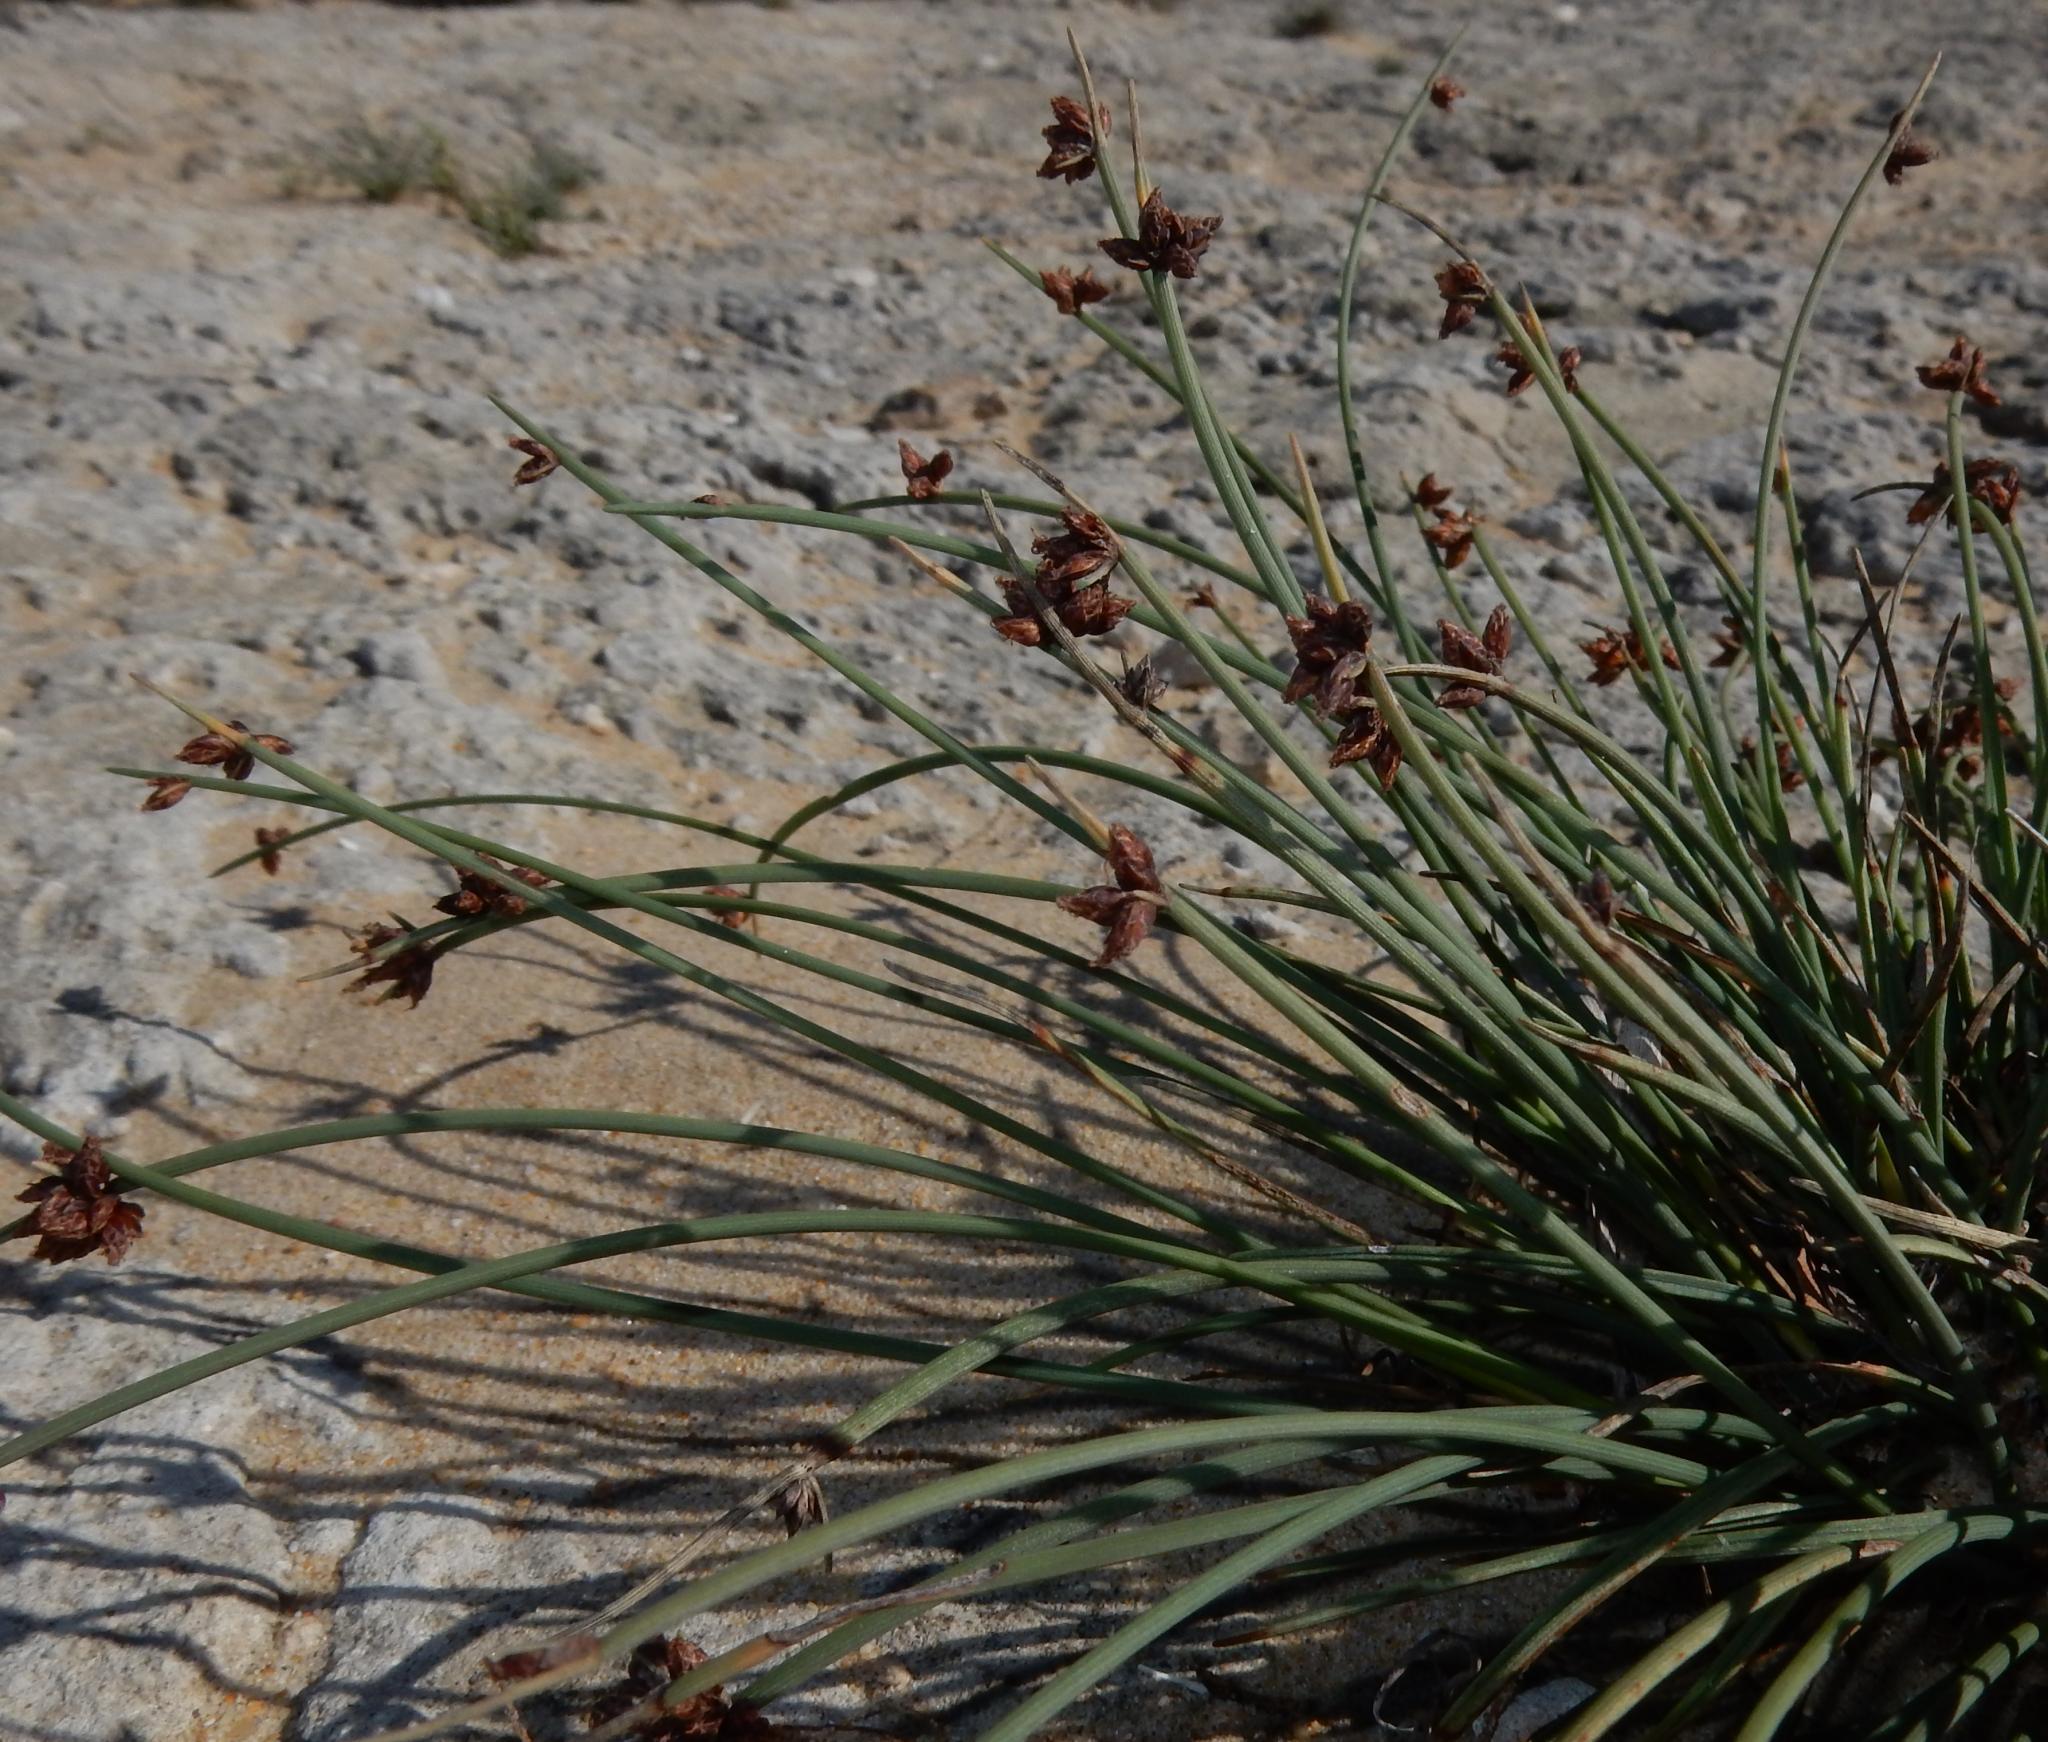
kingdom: Plantae
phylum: Tracheophyta
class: Liliopsida
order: Poales
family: Cyperaceae
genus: Ficinia
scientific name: Ficinia lateralis
